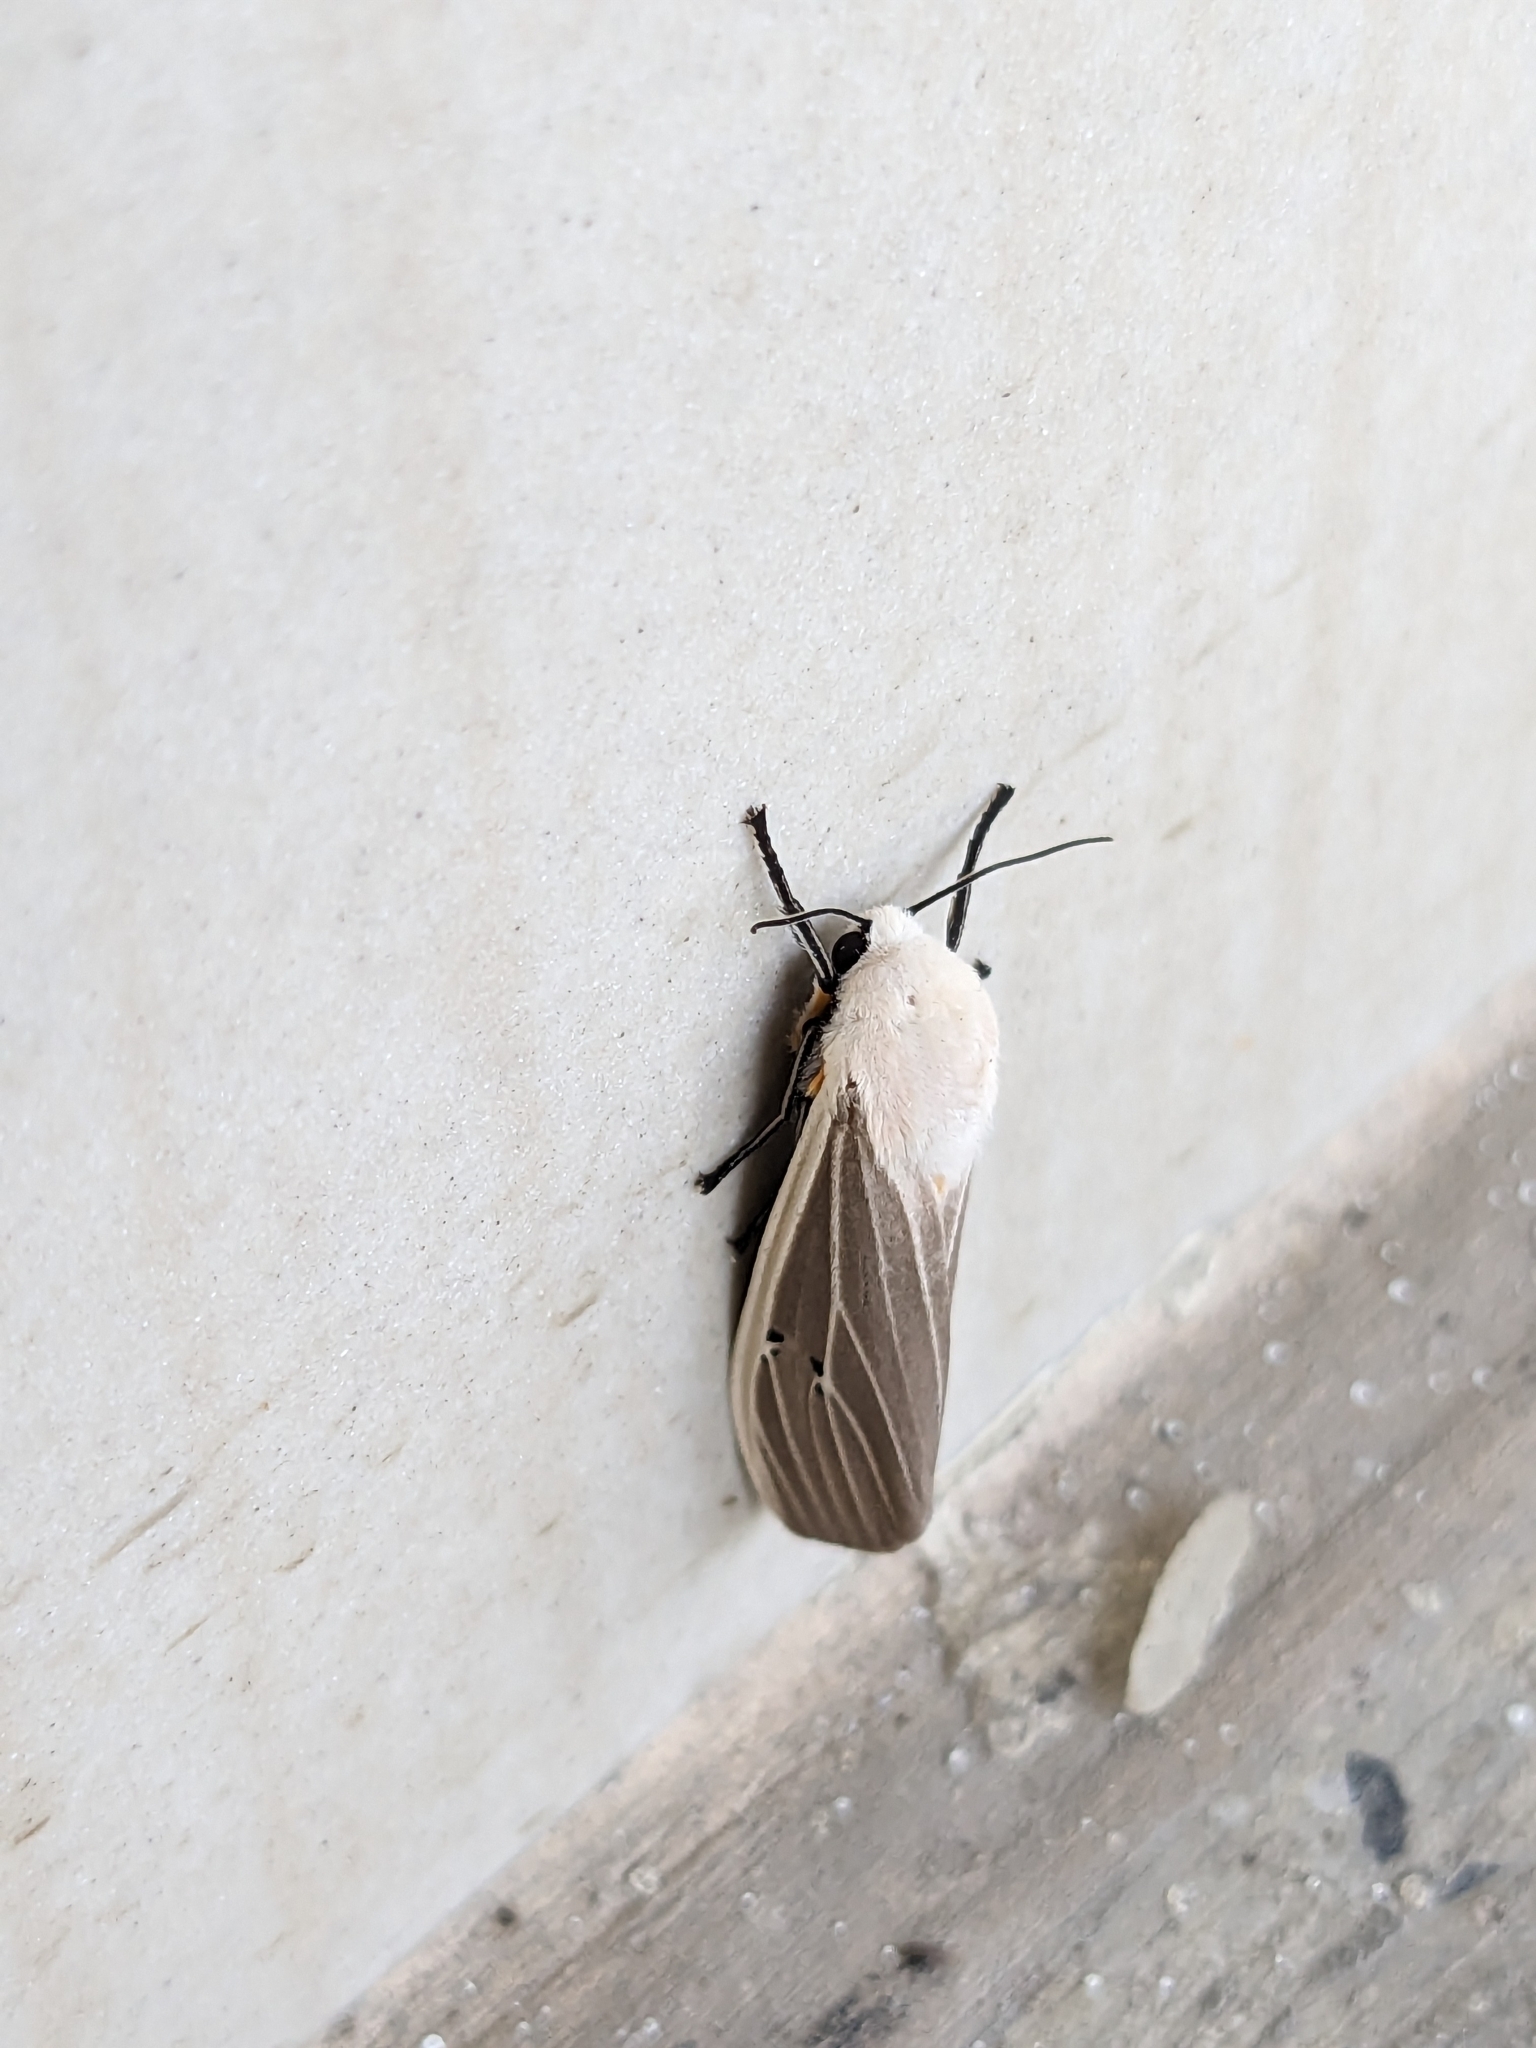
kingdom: Animalia
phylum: Arthropoda
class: Insecta
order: Lepidoptera
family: Erebidae
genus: Creatonotos
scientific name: Creatonotos transiens
